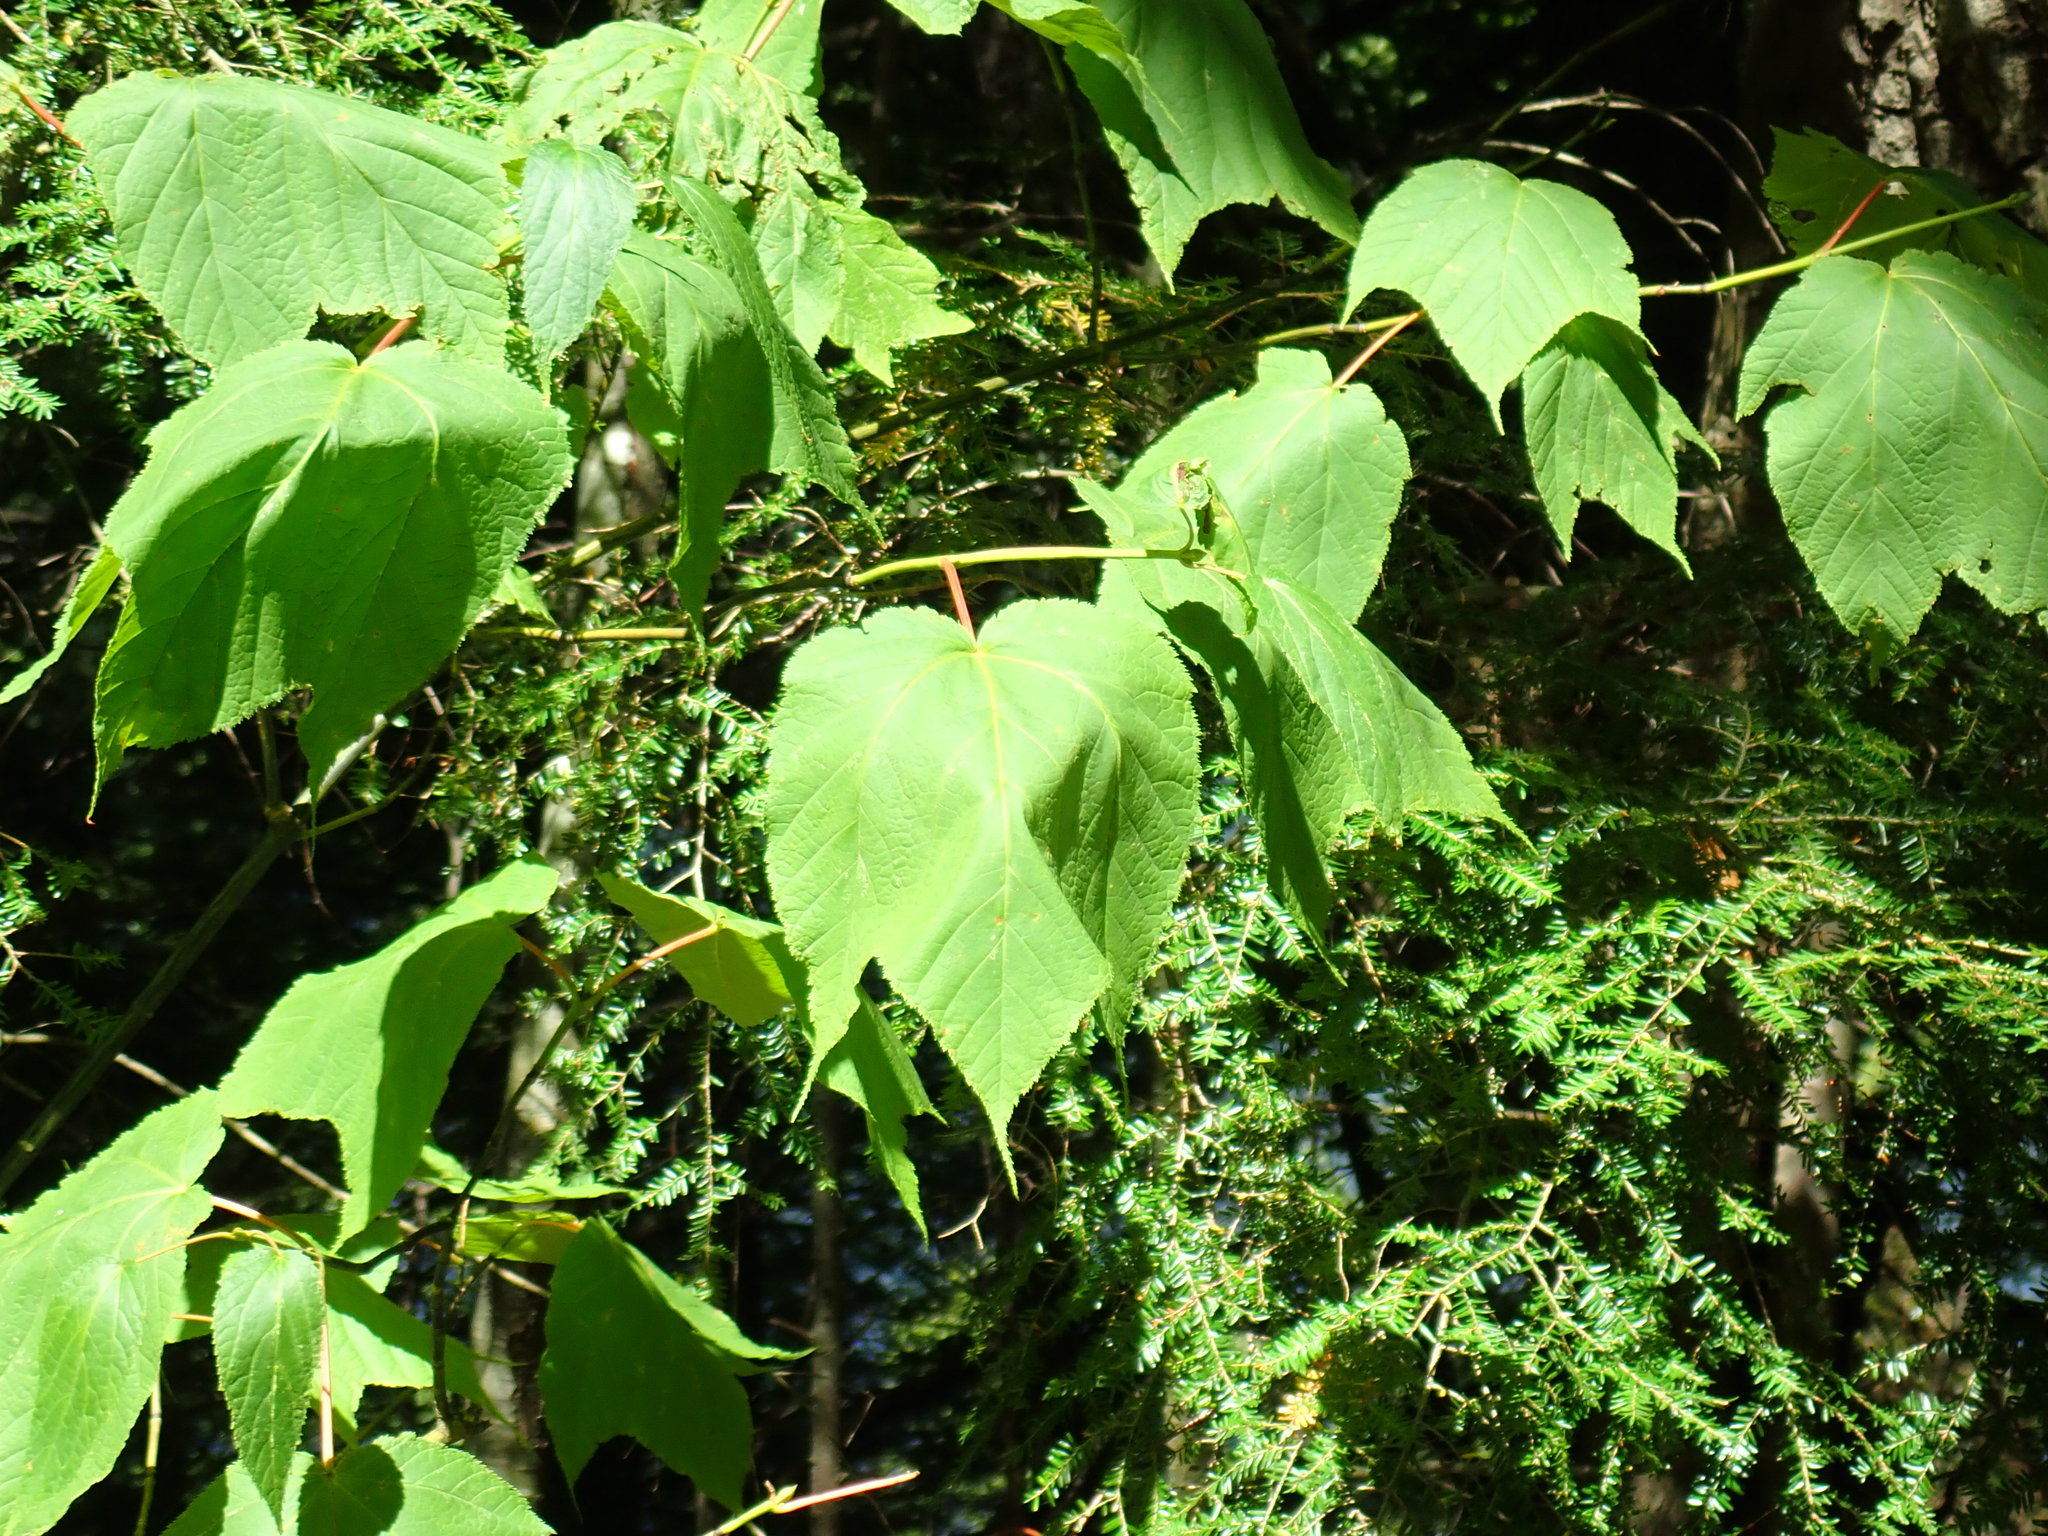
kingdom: Plantae
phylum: Tracheophyta
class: Magnoliopsida
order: Sapindales
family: Sapindaceae
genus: Acer
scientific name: Acer pensylvanicum
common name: Moosewood
